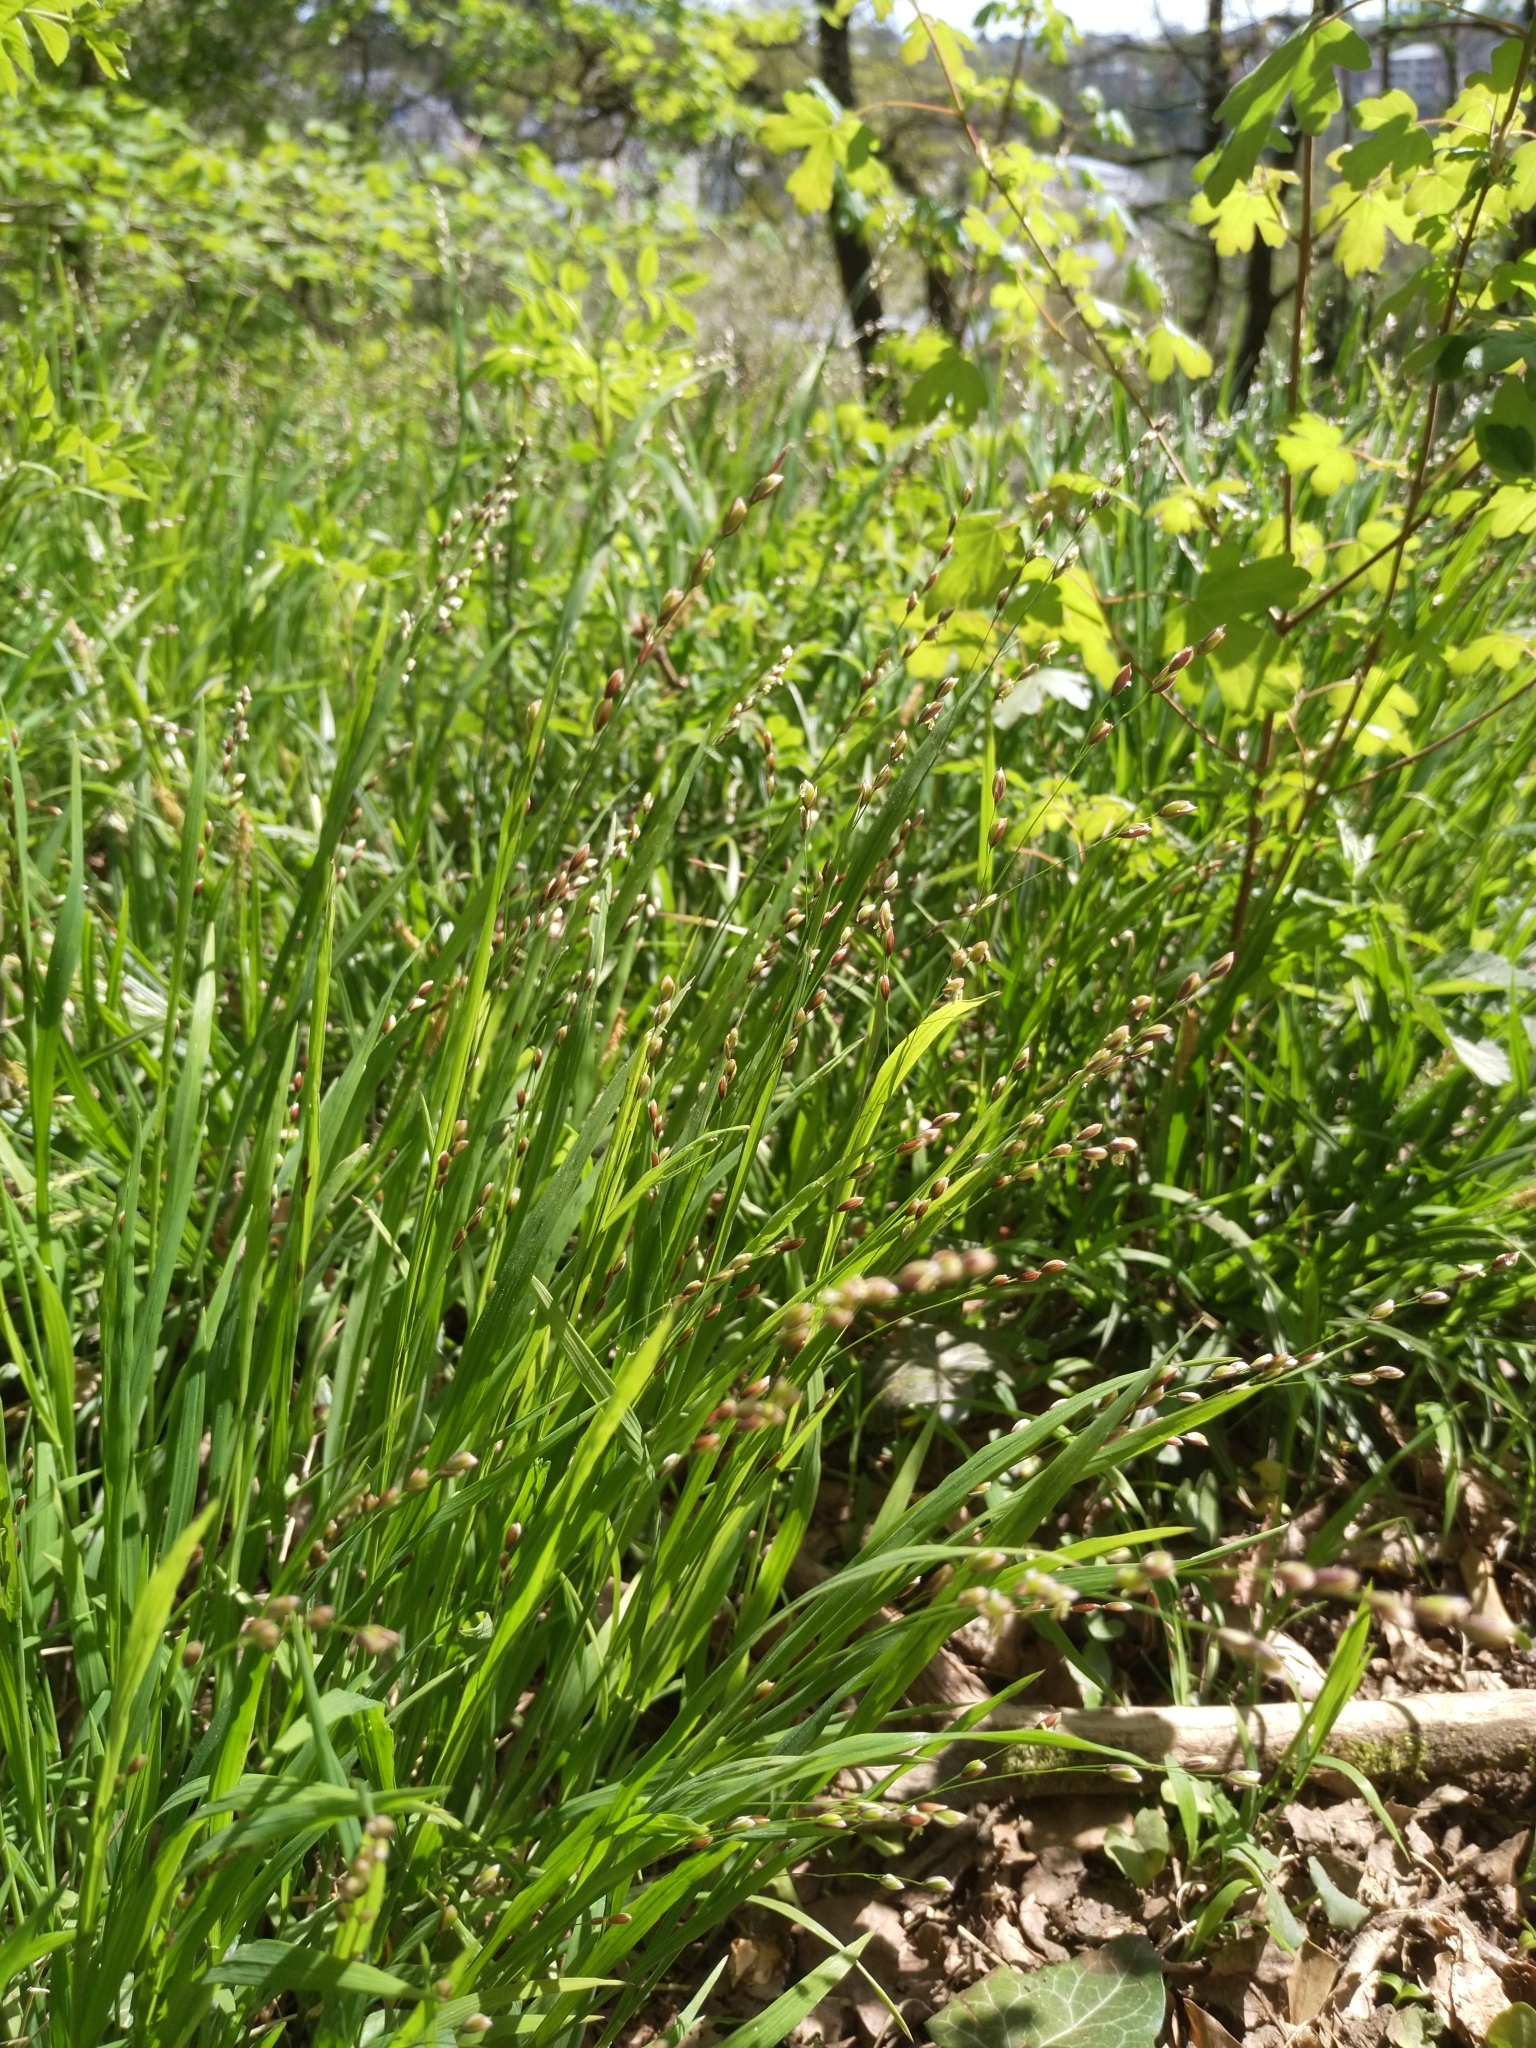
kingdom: Plantae
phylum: Tracheophyta
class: Liliopsida
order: Poales
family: Poaceae
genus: Melica
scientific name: Melica uniflora
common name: Wood melick
